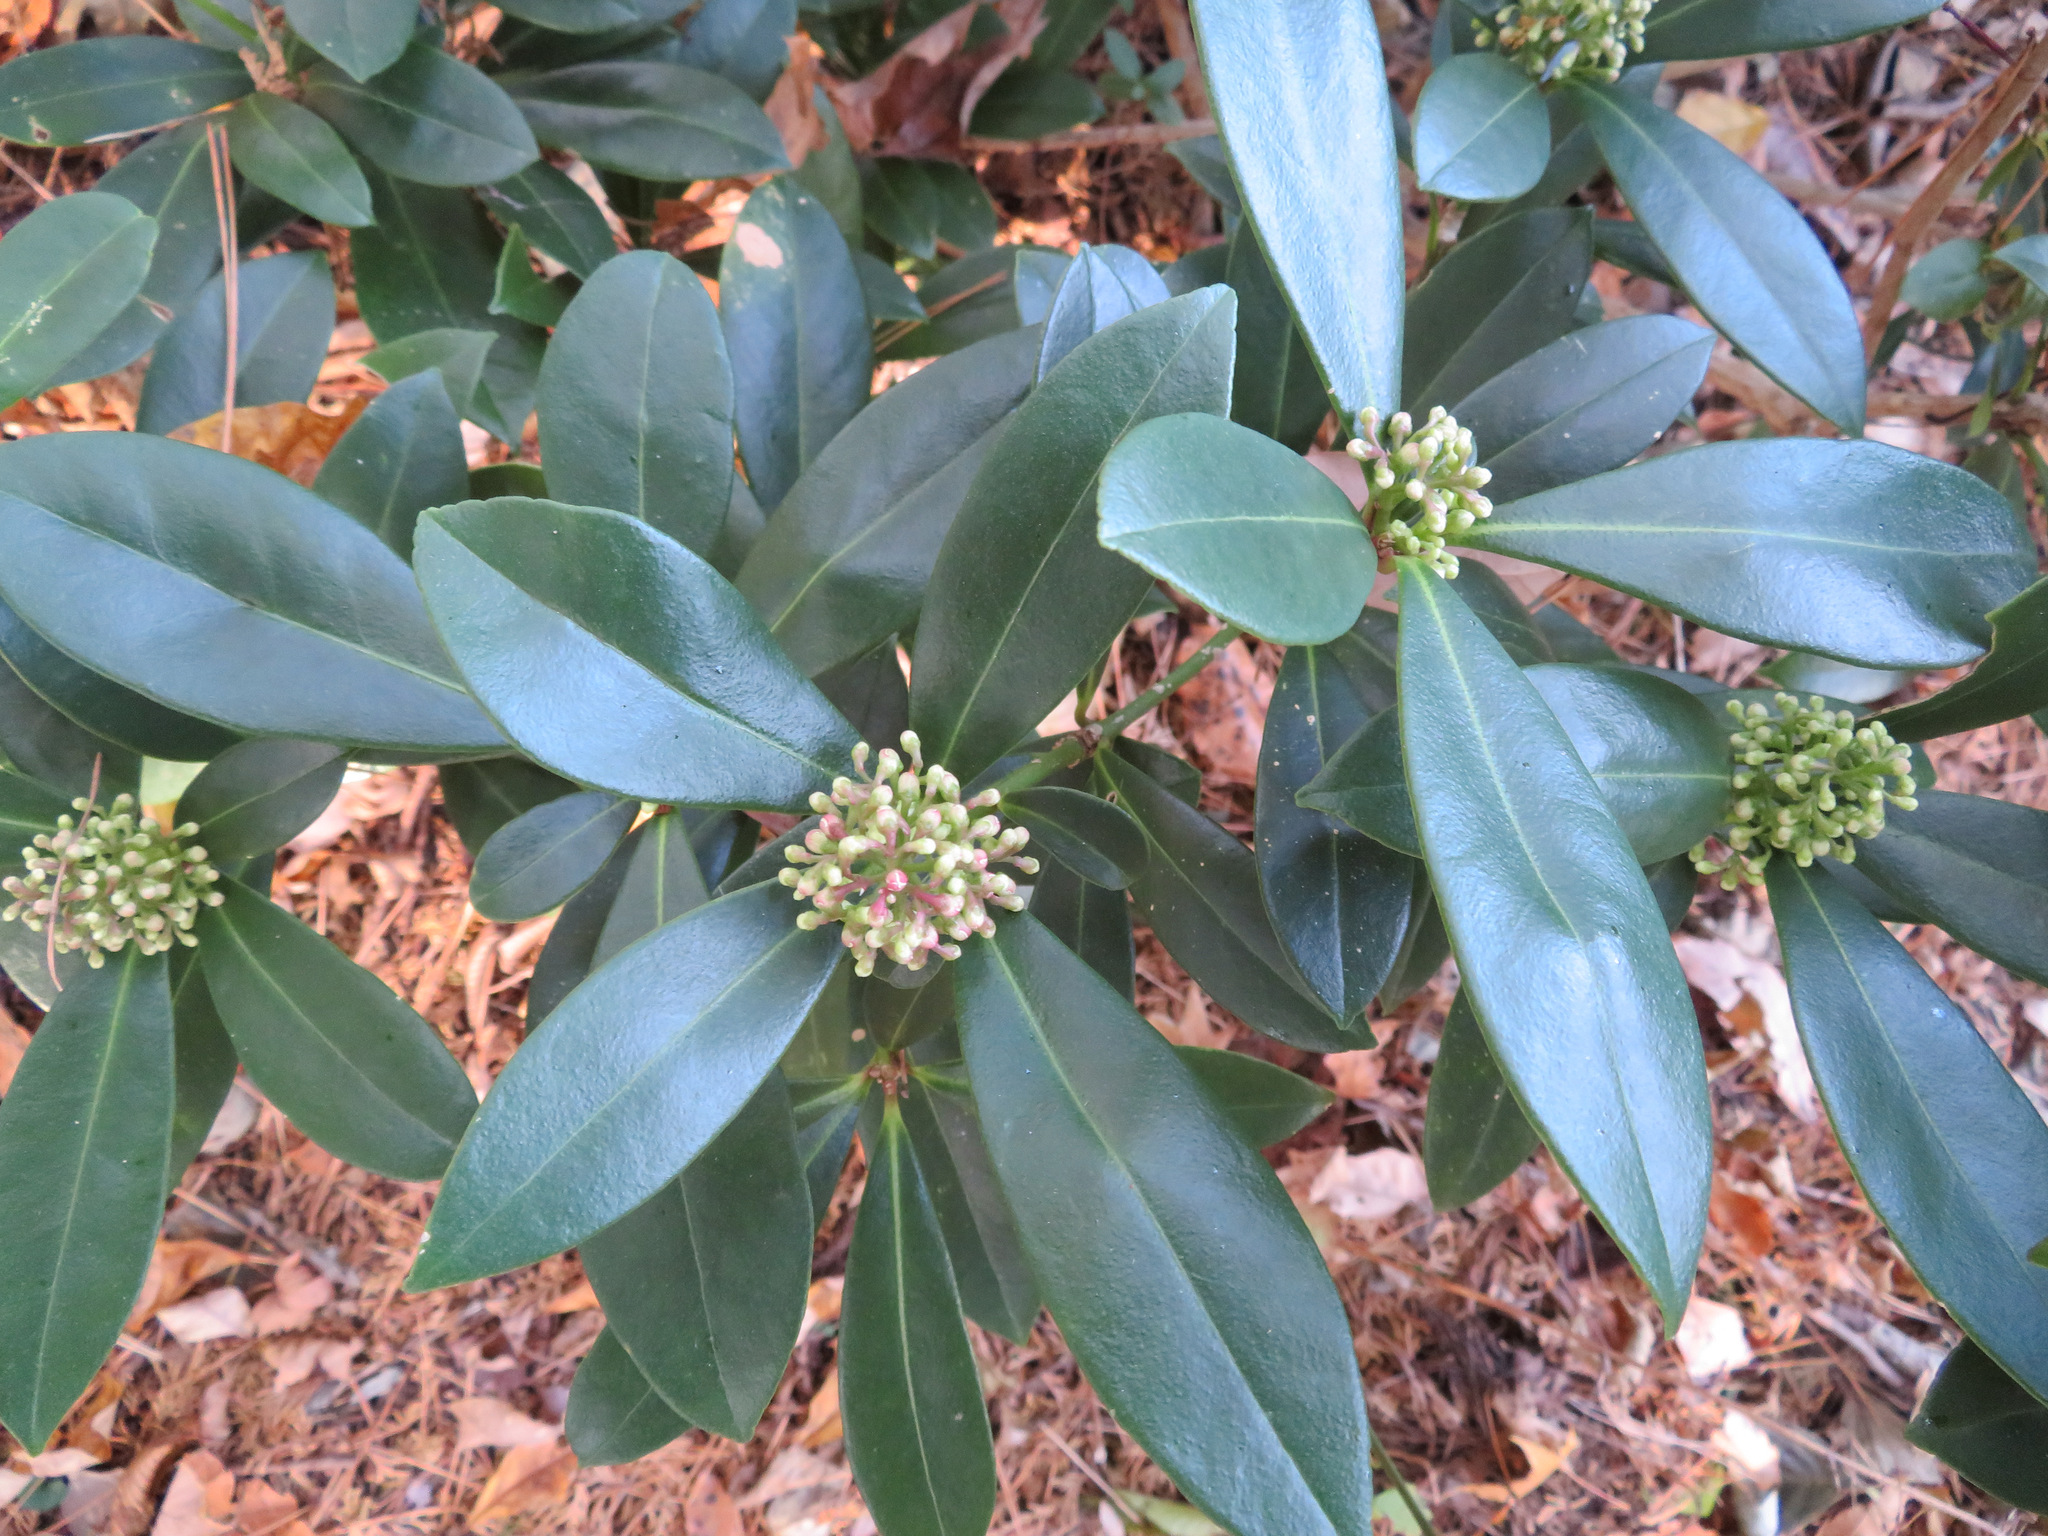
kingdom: Plantae
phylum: Tracheophyta
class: Magnoliopsida
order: Sapindales
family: Rutaceae
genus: Skimmia
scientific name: Skimmia japonica
